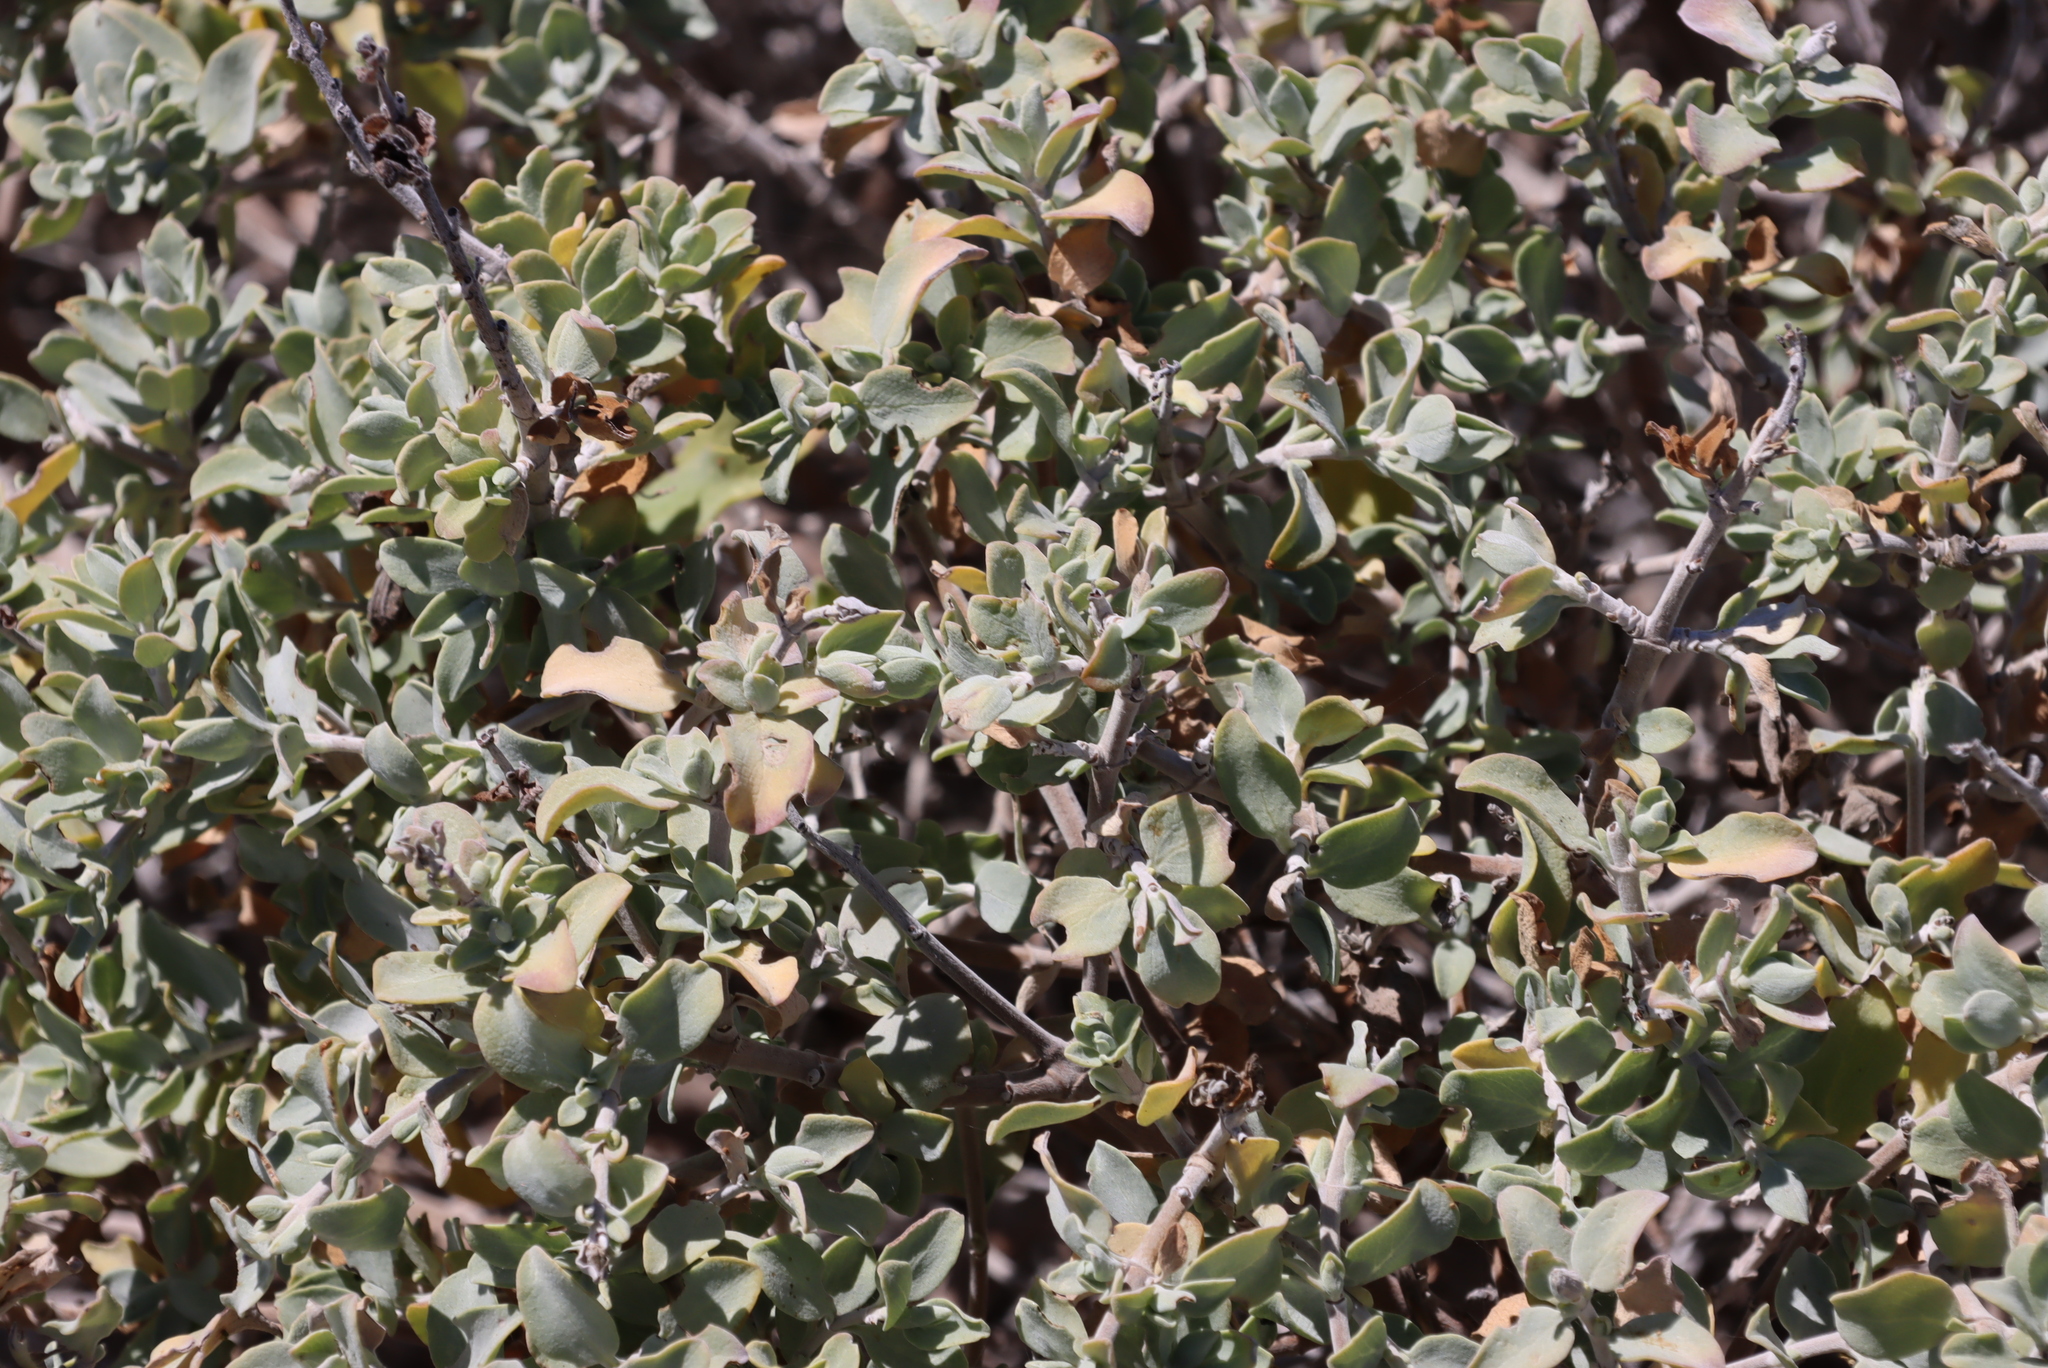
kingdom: Plantae
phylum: Tracheophyta
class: Magnoliopsida
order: Lamiales
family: Lamiaceae
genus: Salvia
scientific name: Salvia aurea
